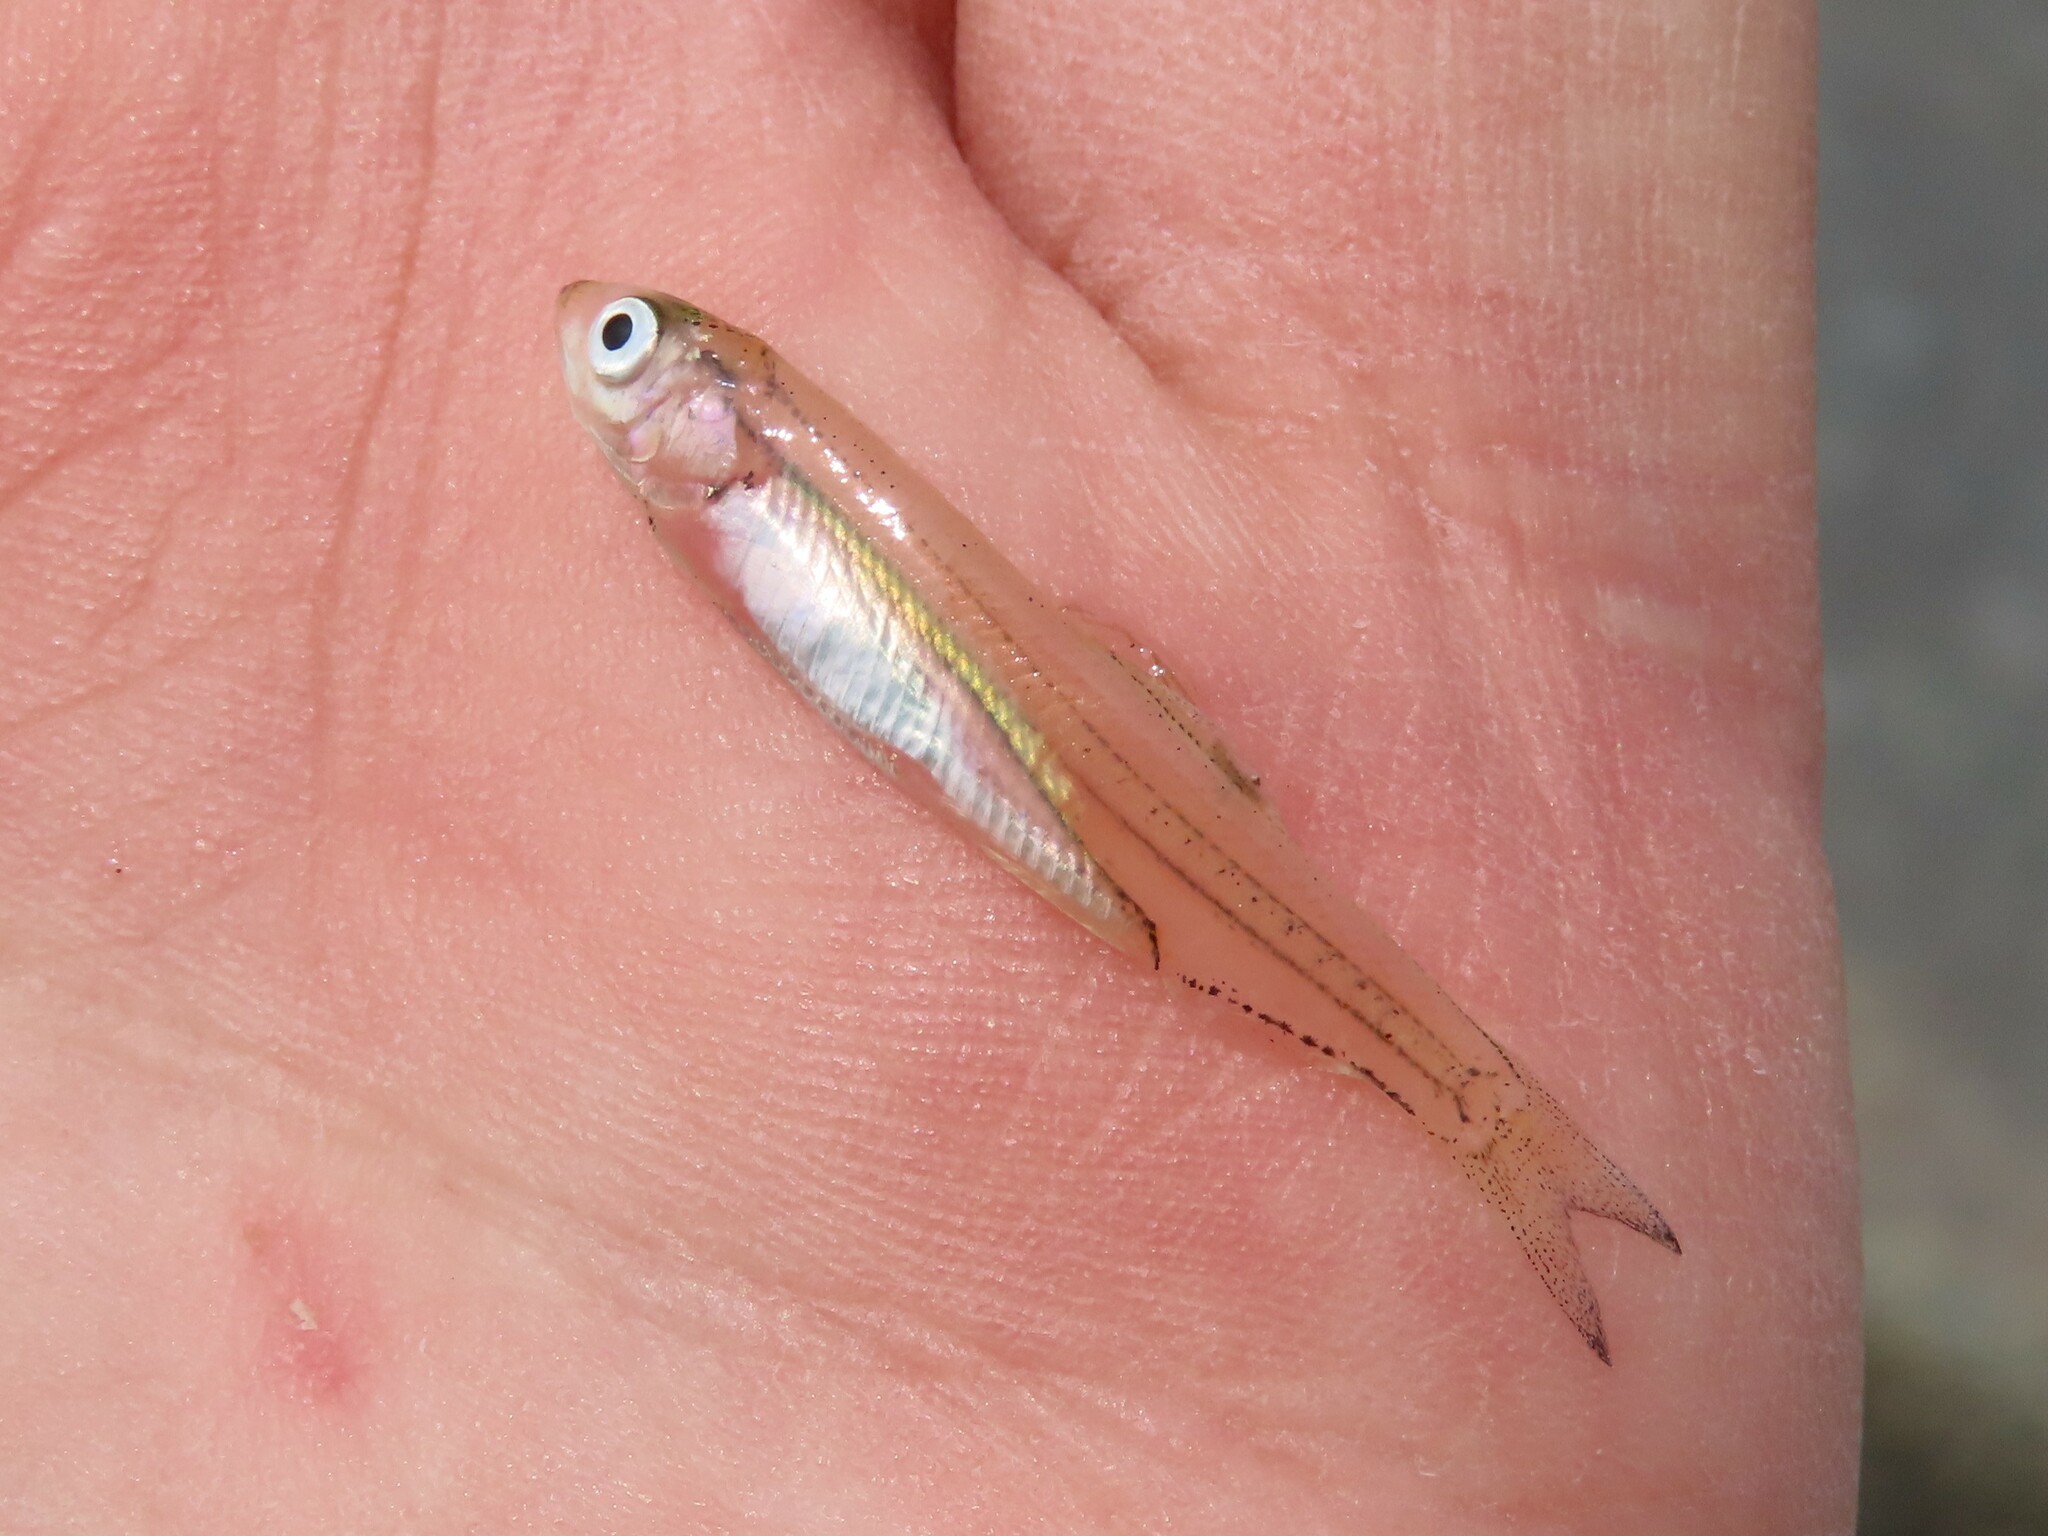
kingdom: Animalia
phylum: Chordata
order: Clupeiformes
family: Engraulidae
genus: Anchoa
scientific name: Anchoa mitchilli
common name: Bay anchovy
